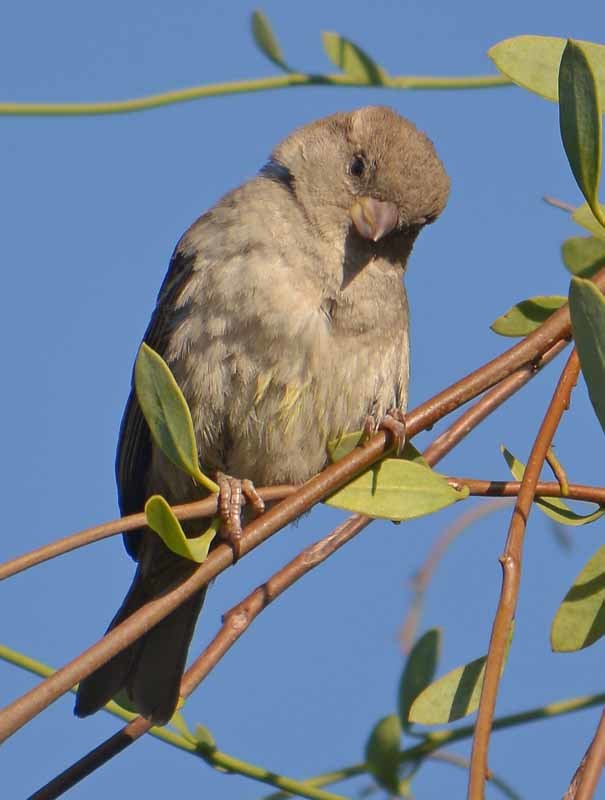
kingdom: Animalia
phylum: Chordata
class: Aves
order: Passeriformes
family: Passeridae
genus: Passer
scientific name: Passer domesticus
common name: House sparrow
